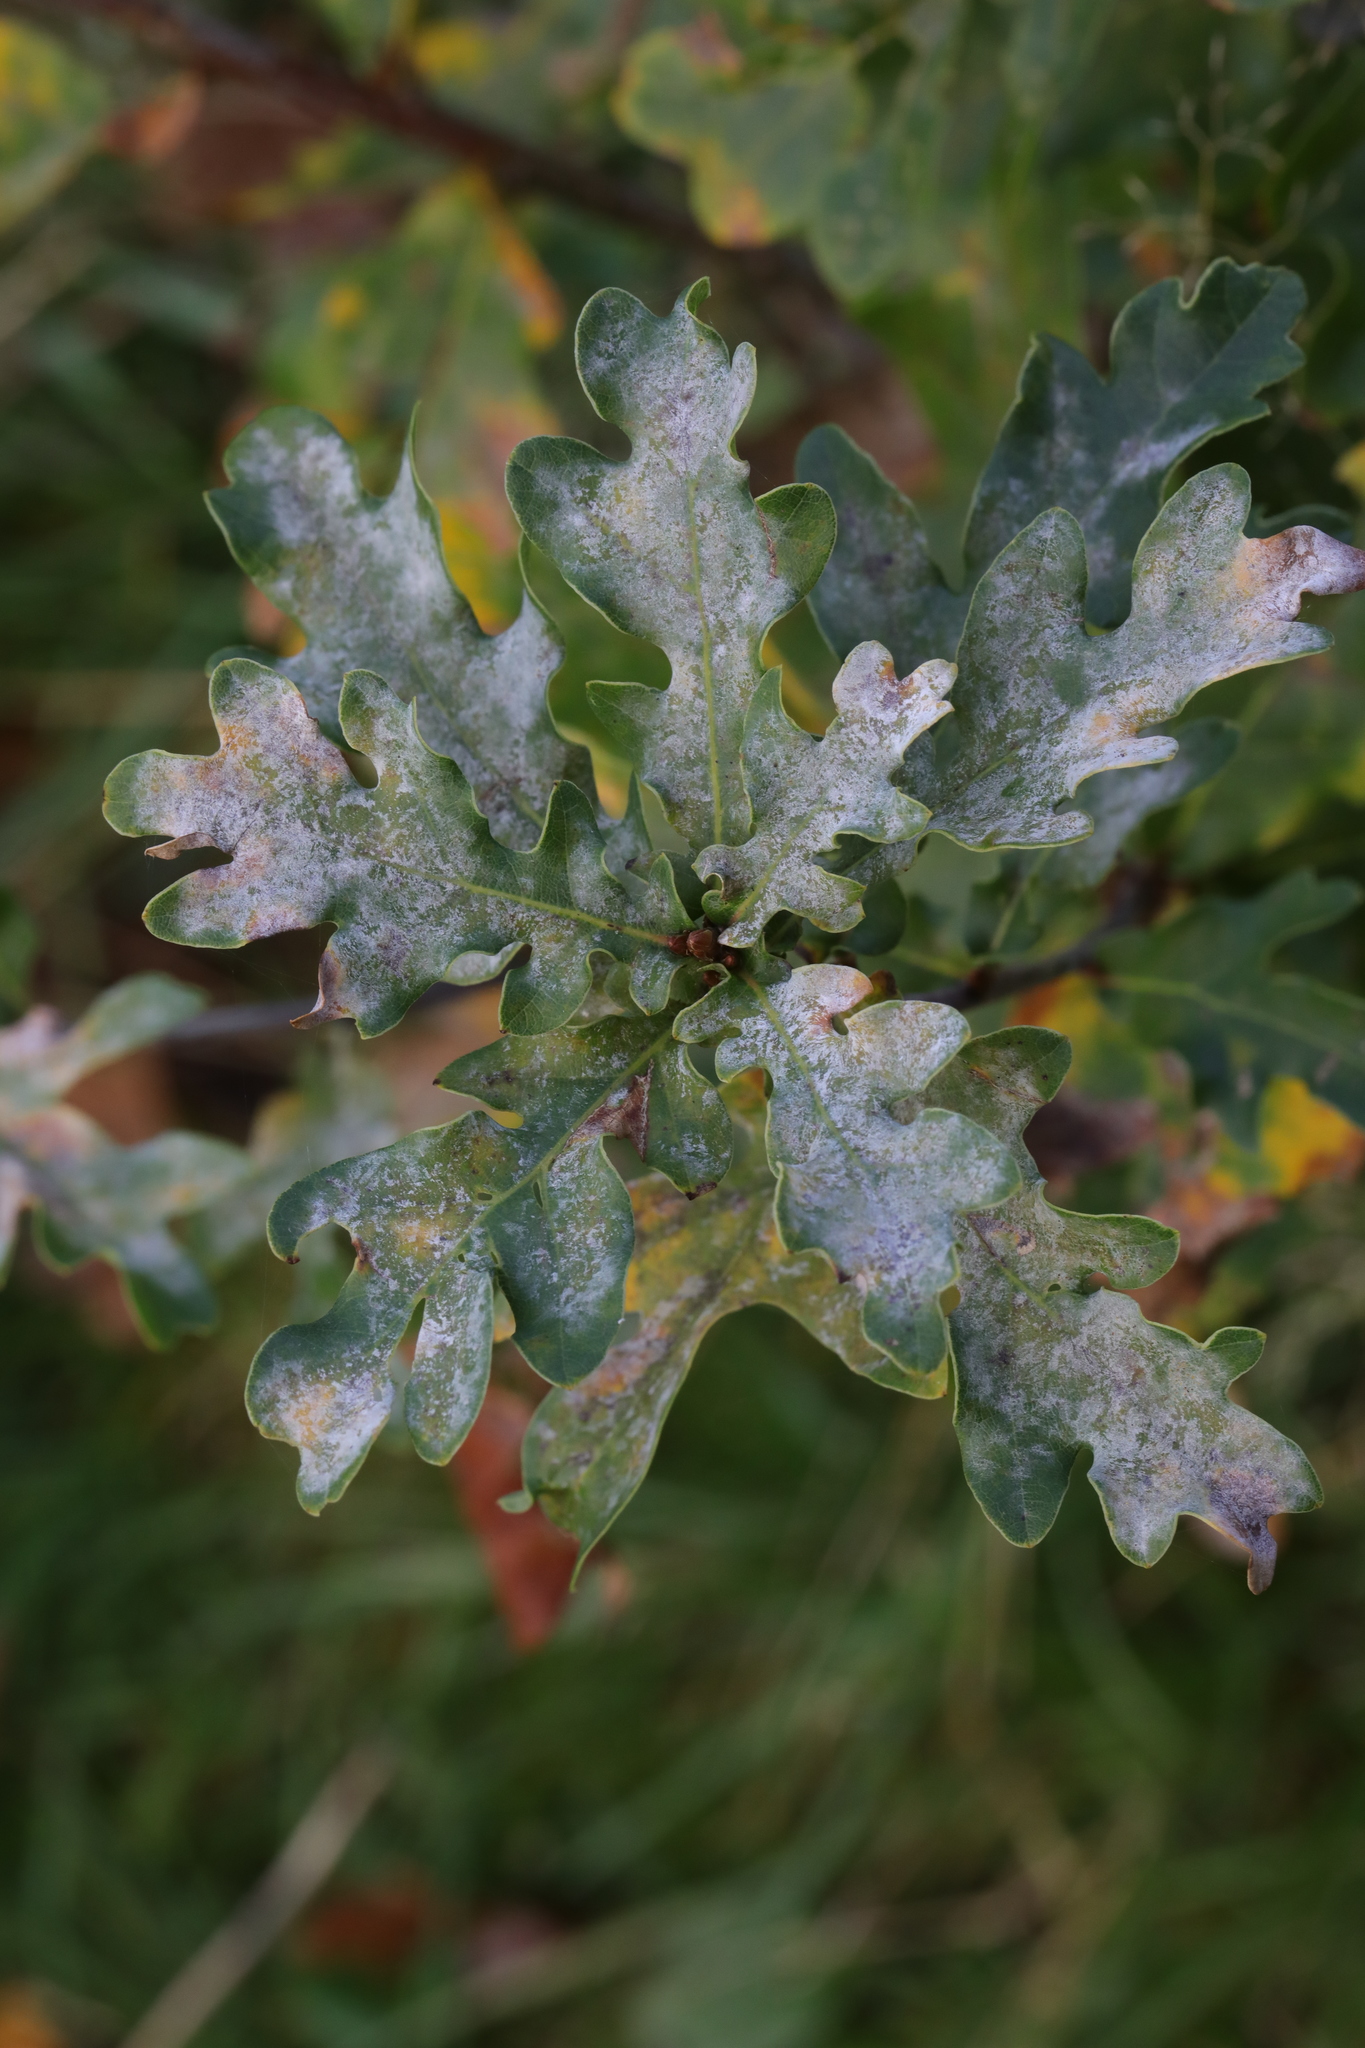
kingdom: Fungi
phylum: Ascomycota
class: Leotiomycetes
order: Helotiales
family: Erysiphaceae
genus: Erysiphe
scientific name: Erysiphe alphitoides
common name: Oak mildew
